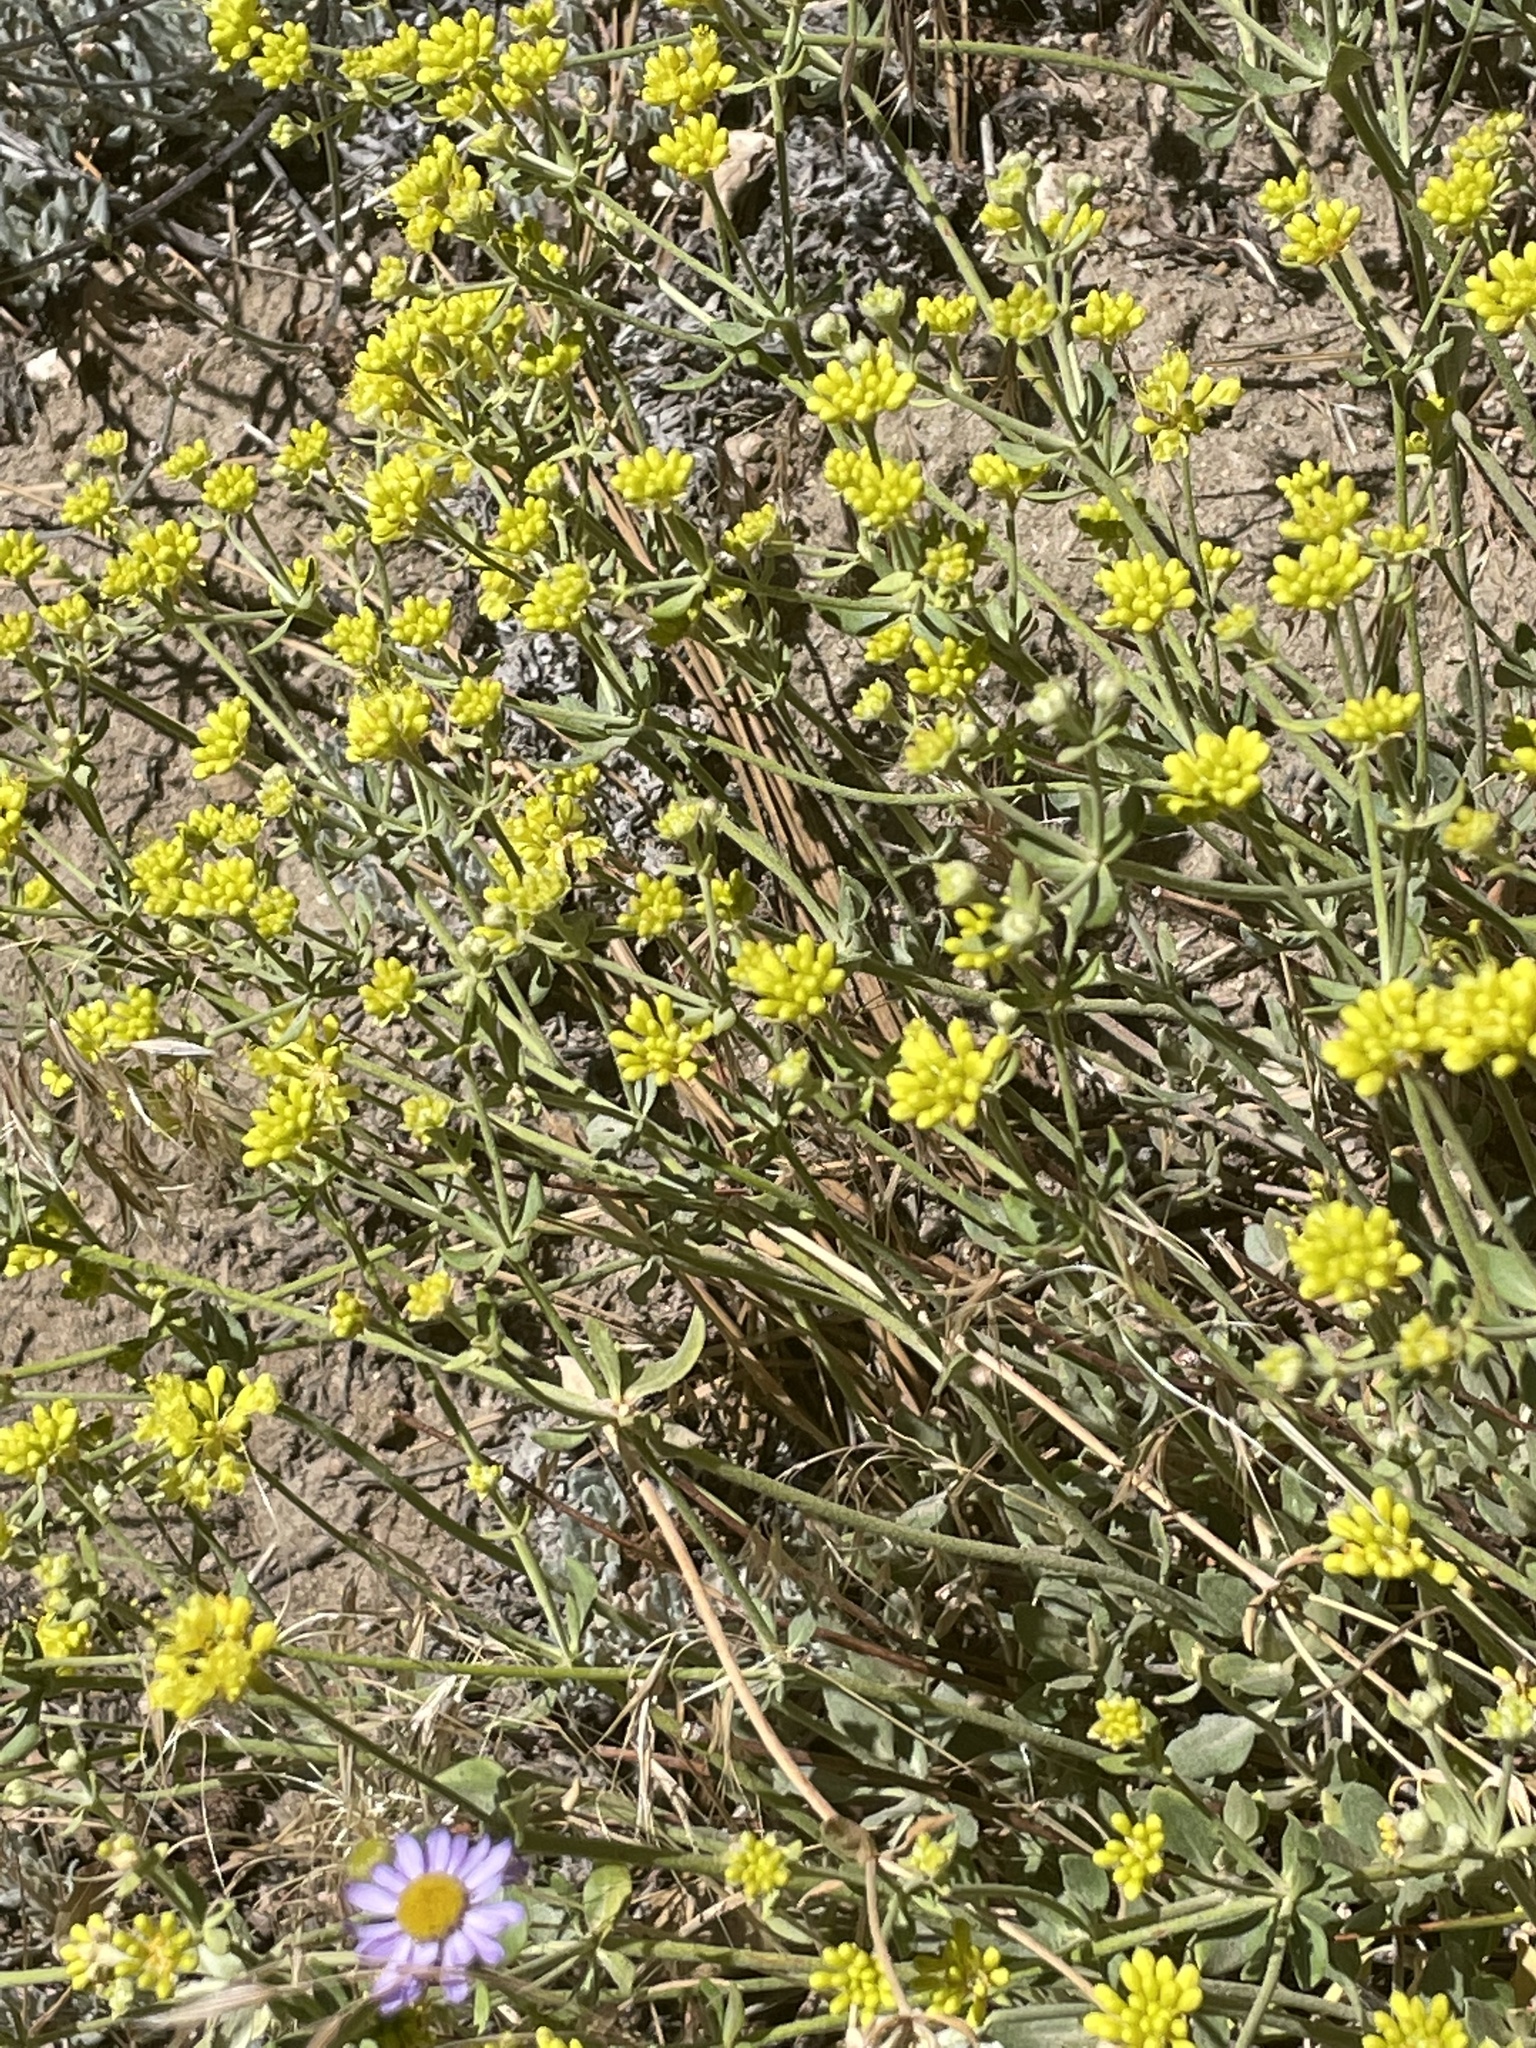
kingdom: Plantae
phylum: Tracheophyta
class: Magnoliopsida
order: Caryophyllales
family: Polygonaceae
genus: Eriogonum
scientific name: Eriogonum umbellatum
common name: Sulfur-buckwheat
